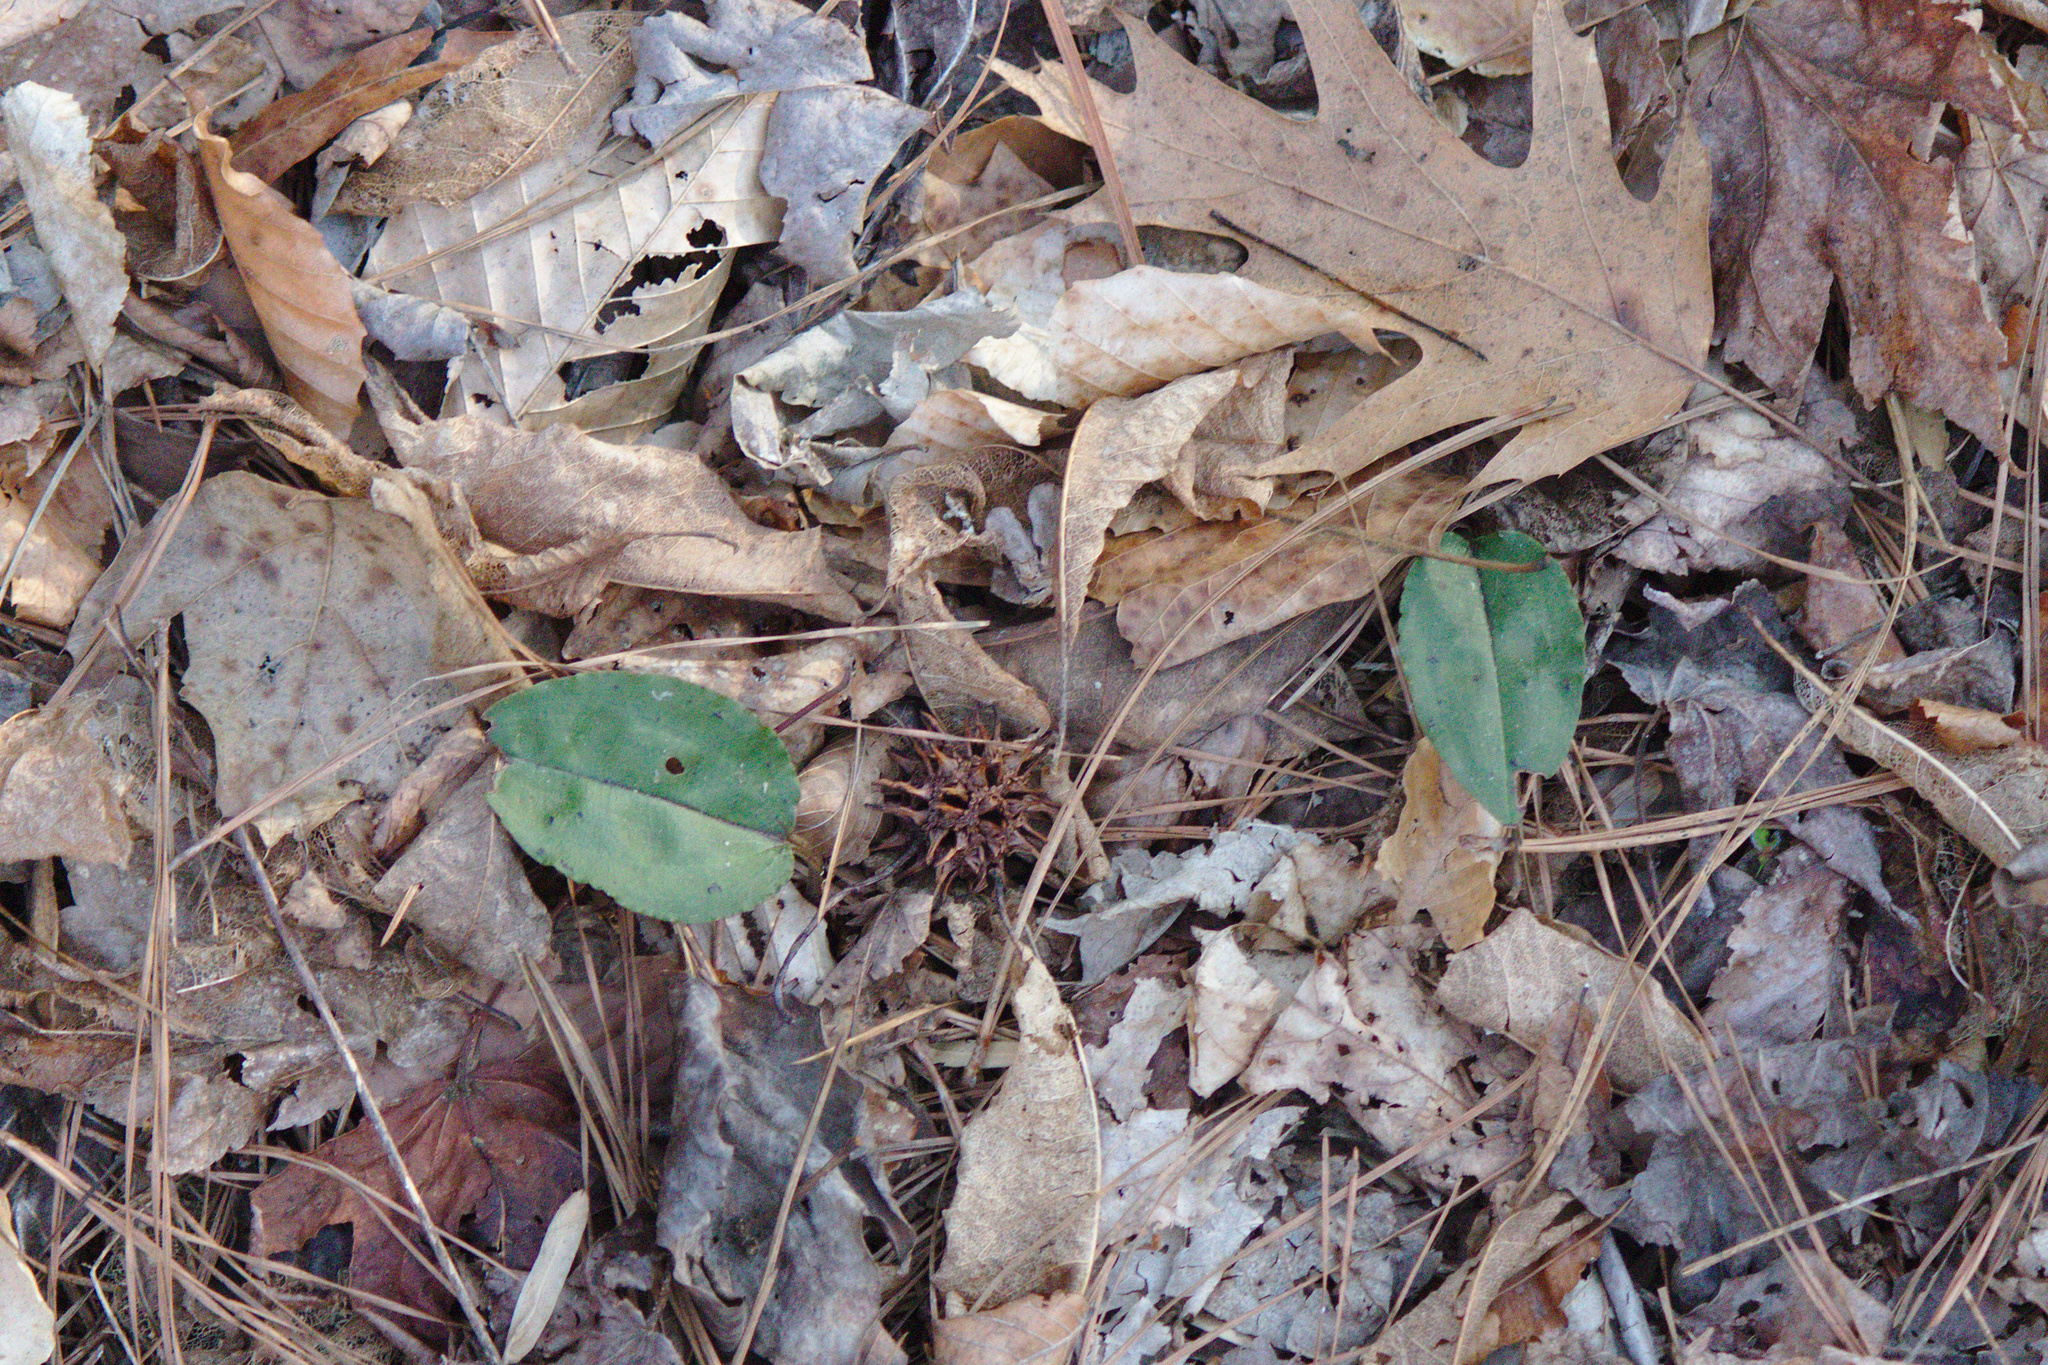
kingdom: Plantae
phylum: Tracheophyta
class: Liliopsida
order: Asparagales
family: Orchidaceae
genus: Tipularia
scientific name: Tipularia discolor
